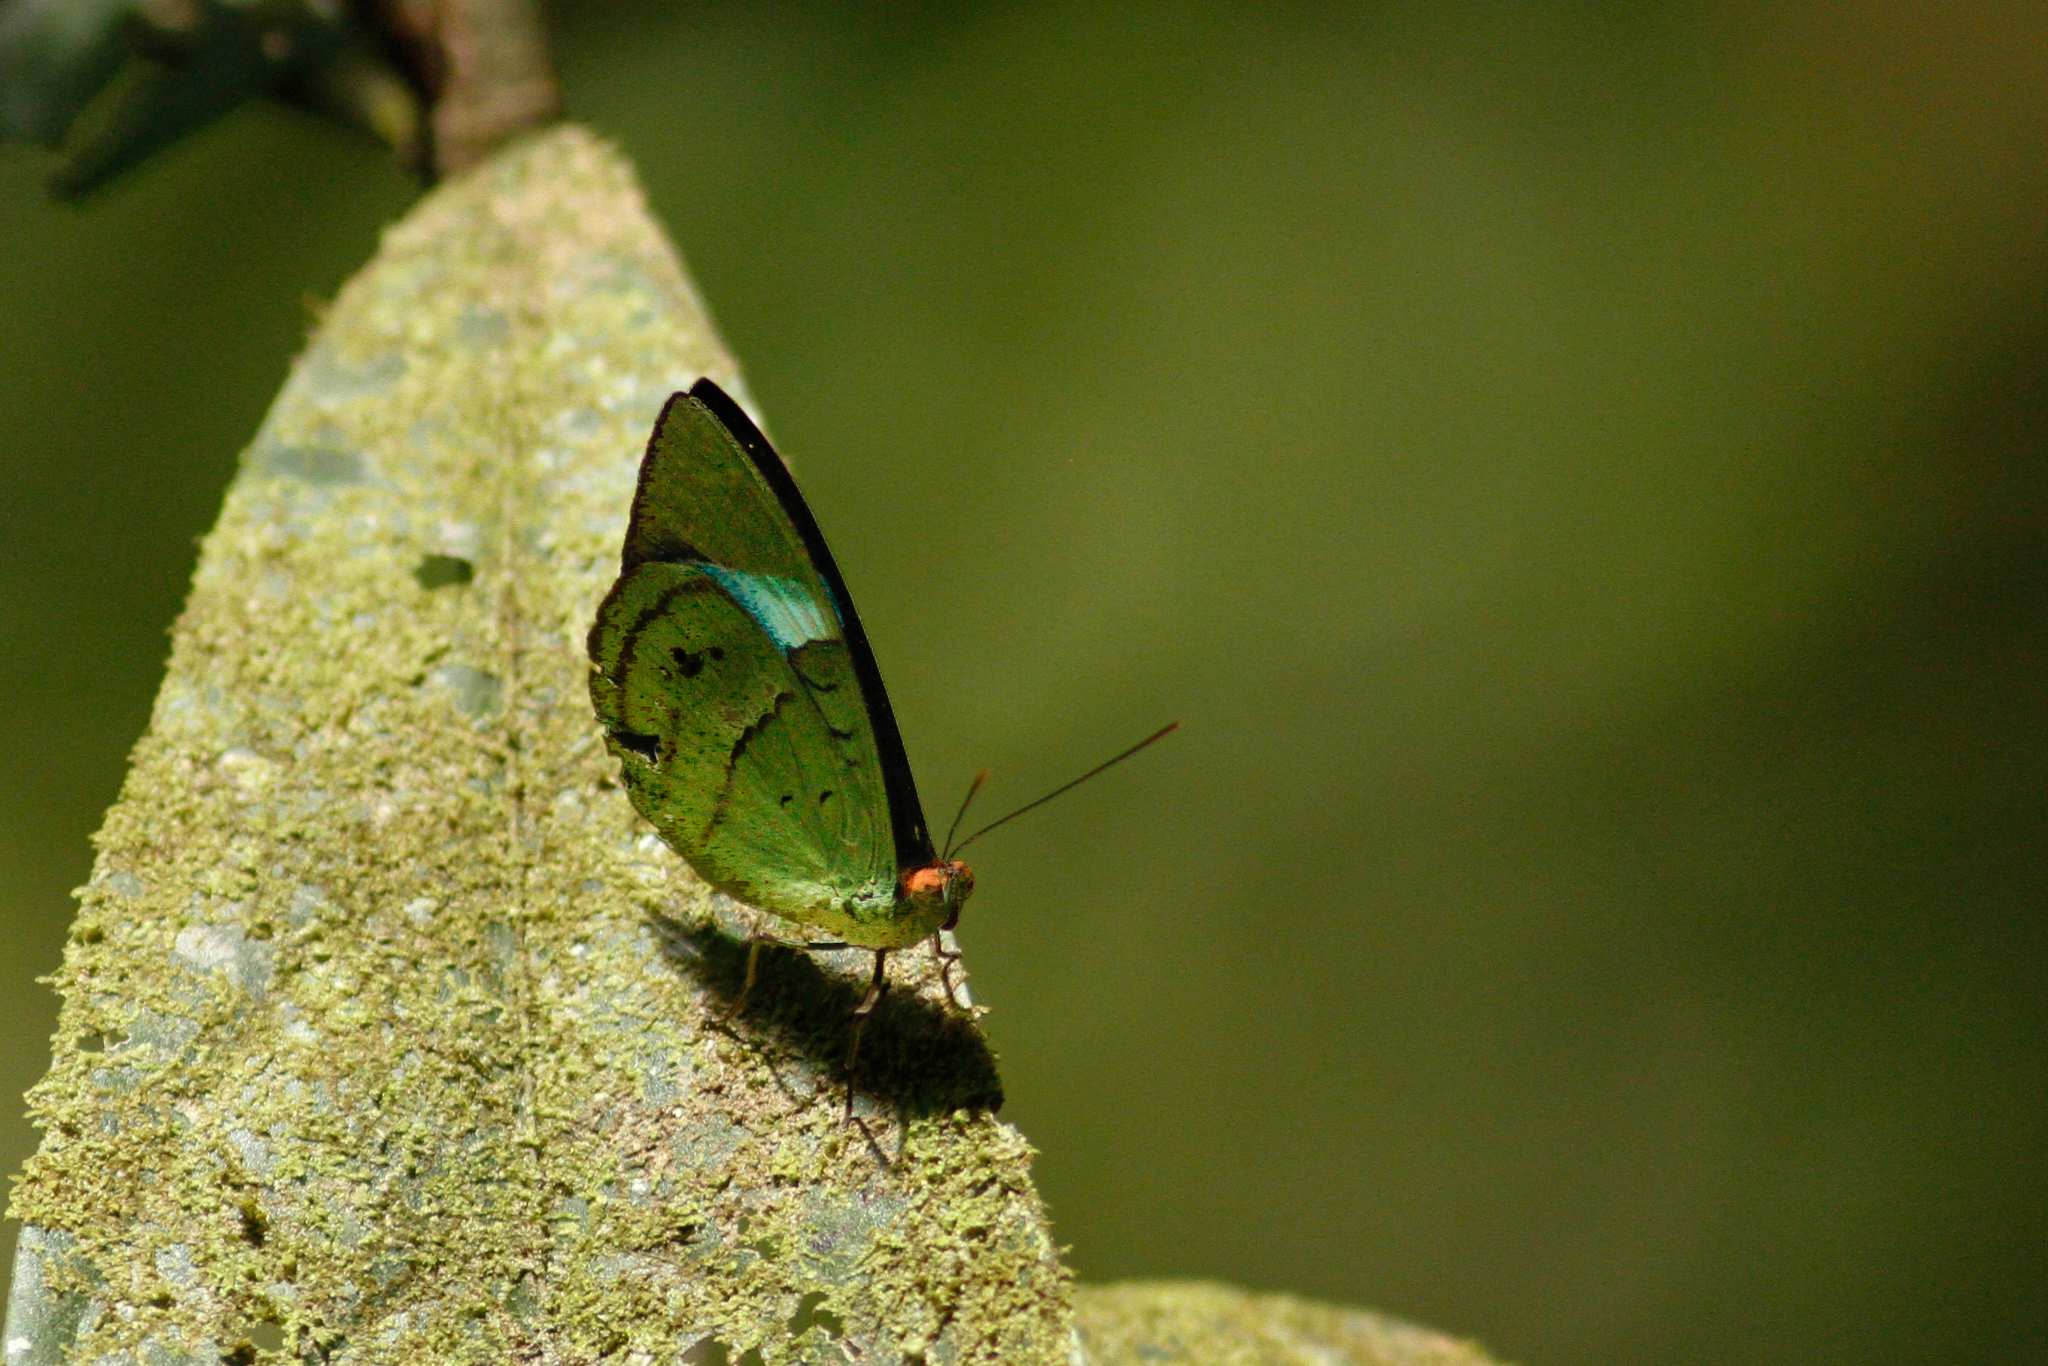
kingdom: Animalia
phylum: Arthropoda
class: Insecta
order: Lepidoptera
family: Nymphalidae
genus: Nessaea
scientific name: Nessaea batesii
